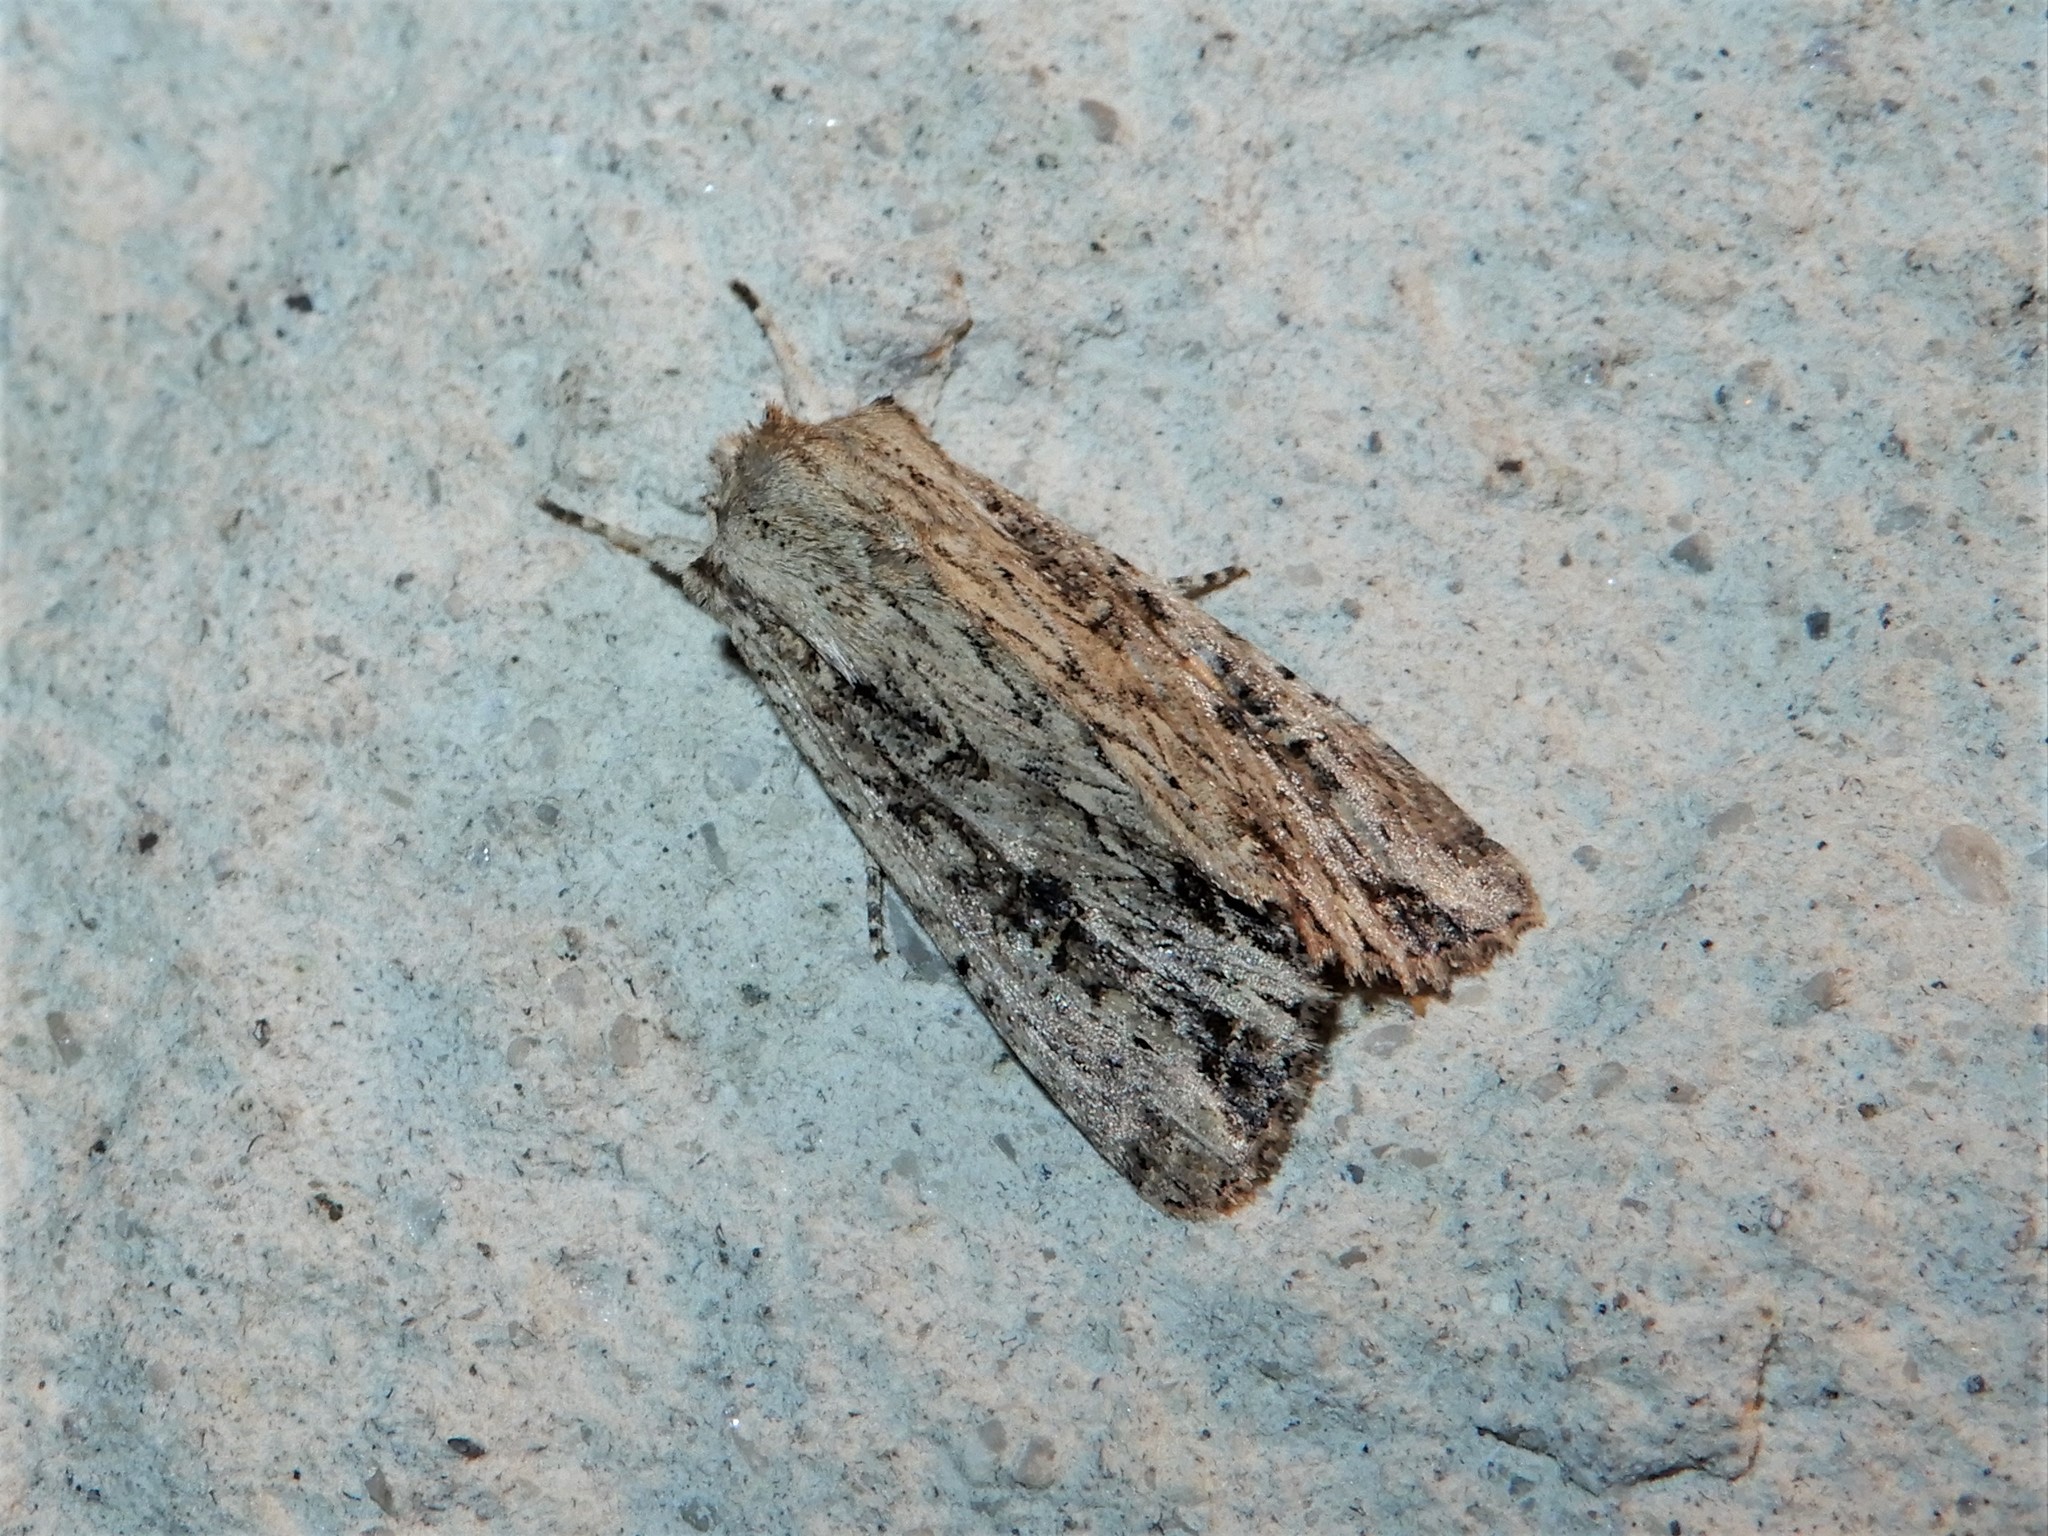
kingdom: Animalia
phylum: Arthropoda
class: Insecta
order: Lepidoptera
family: Noctuidae
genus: Ichneutica
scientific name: Ichneutica lignana
